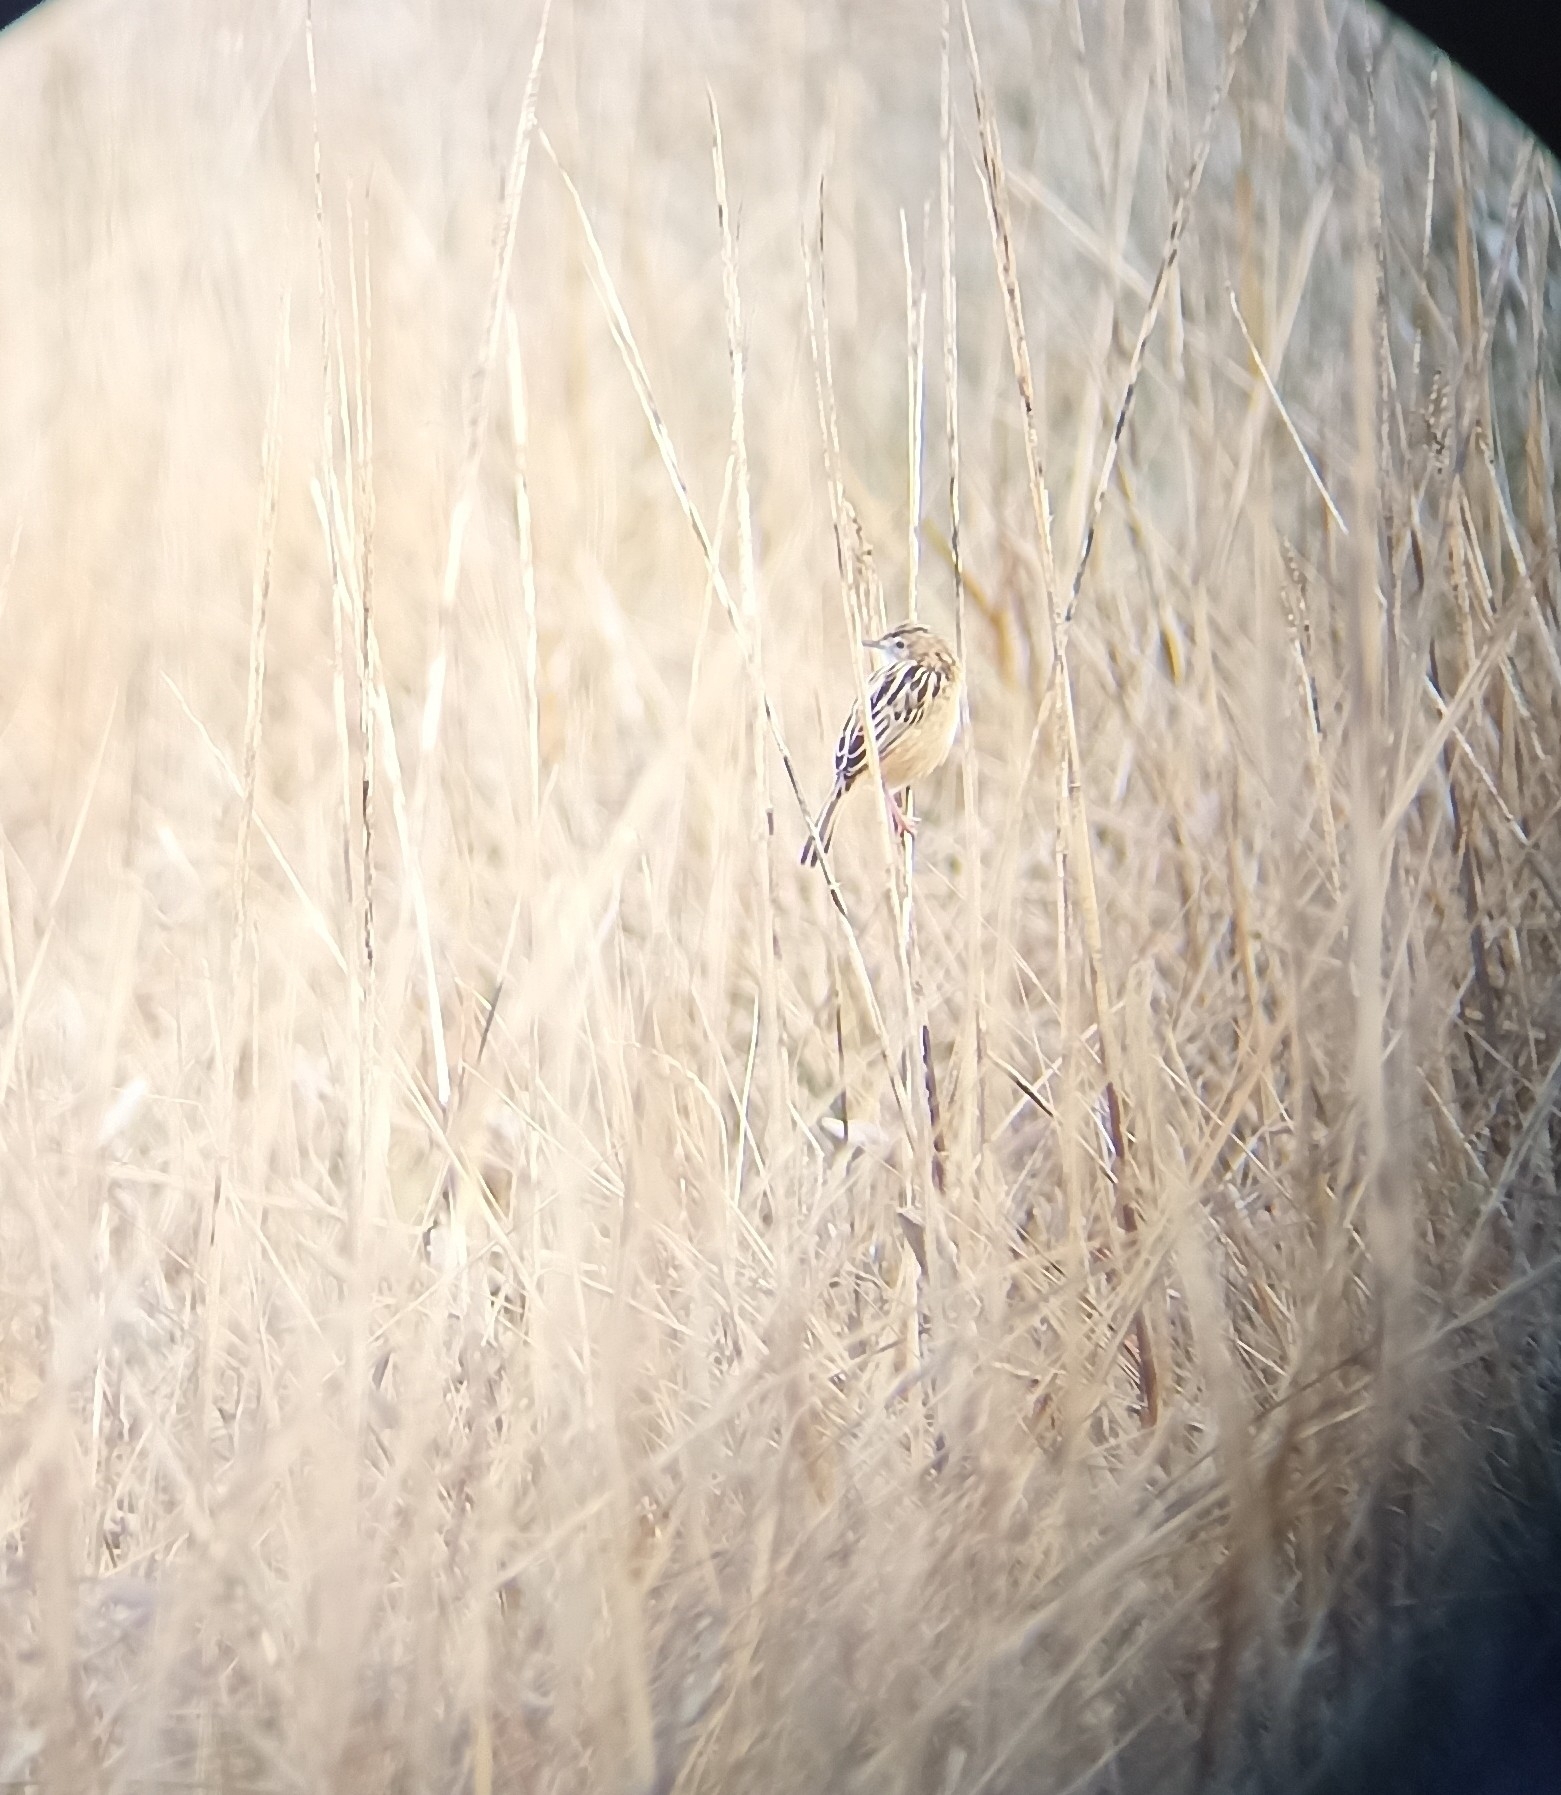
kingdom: Animalia
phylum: Chordata
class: Aves
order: Passeriformes
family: Cisticolidae
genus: Cisticola
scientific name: Cisticola juncidis
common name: Zitting cisticola
